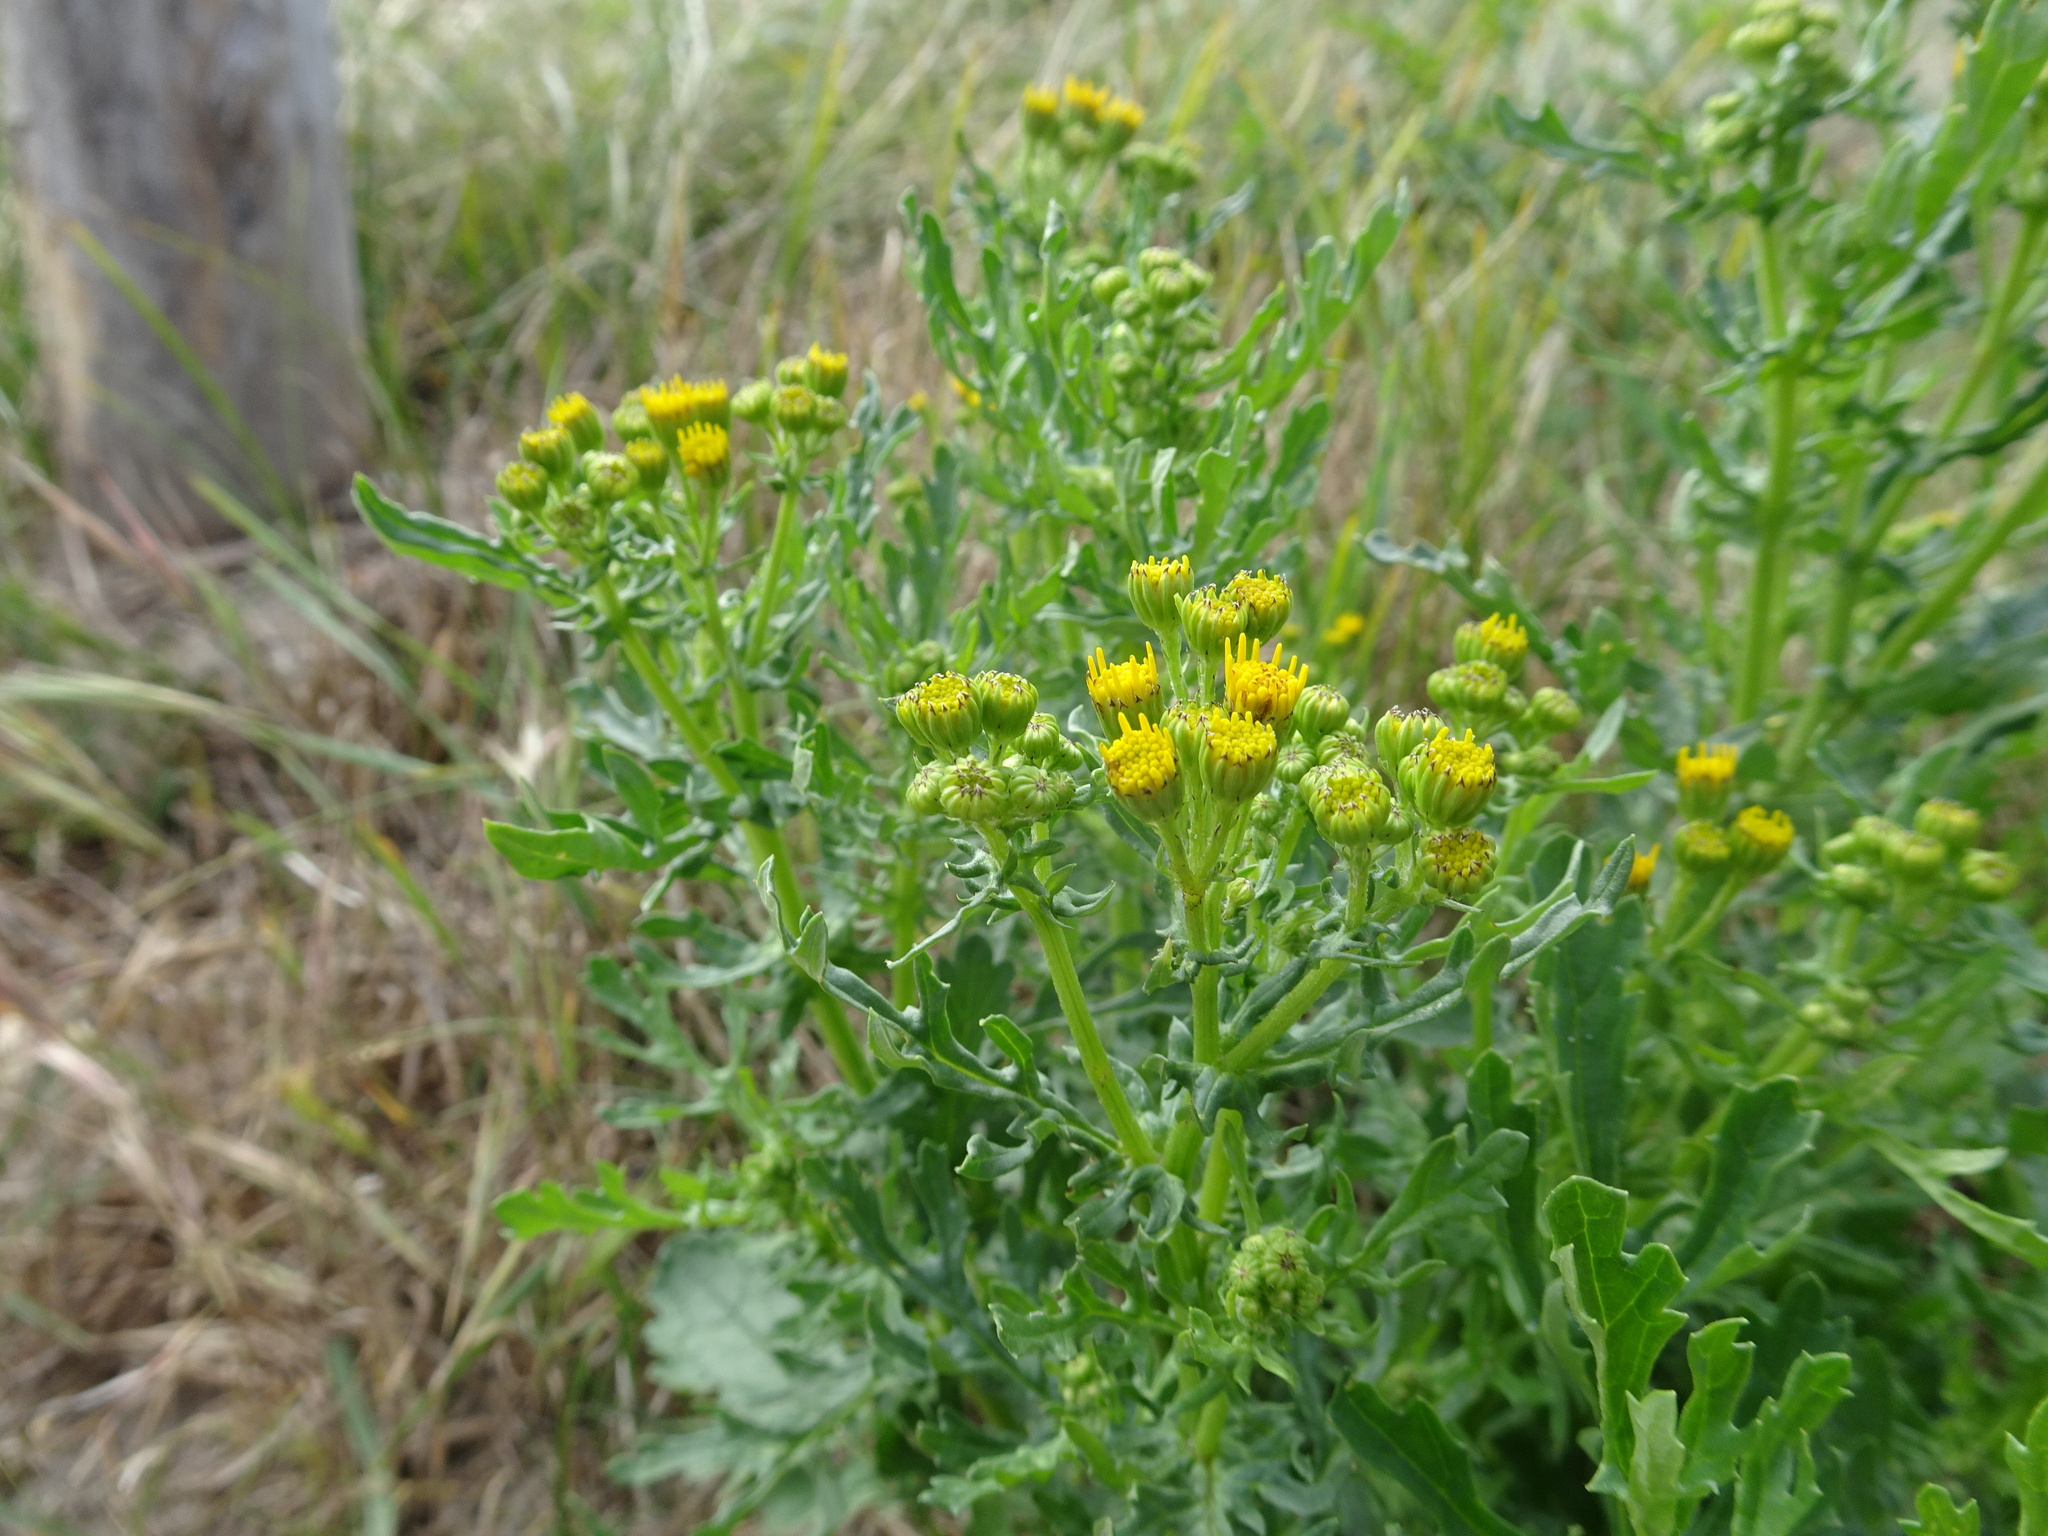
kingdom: Plantae
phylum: Tracheophyta
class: Magnoliopsida
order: Asterales
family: Asteraceae
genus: Jacobaea
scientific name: Jacobaea vulgaris
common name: Stinking willie
